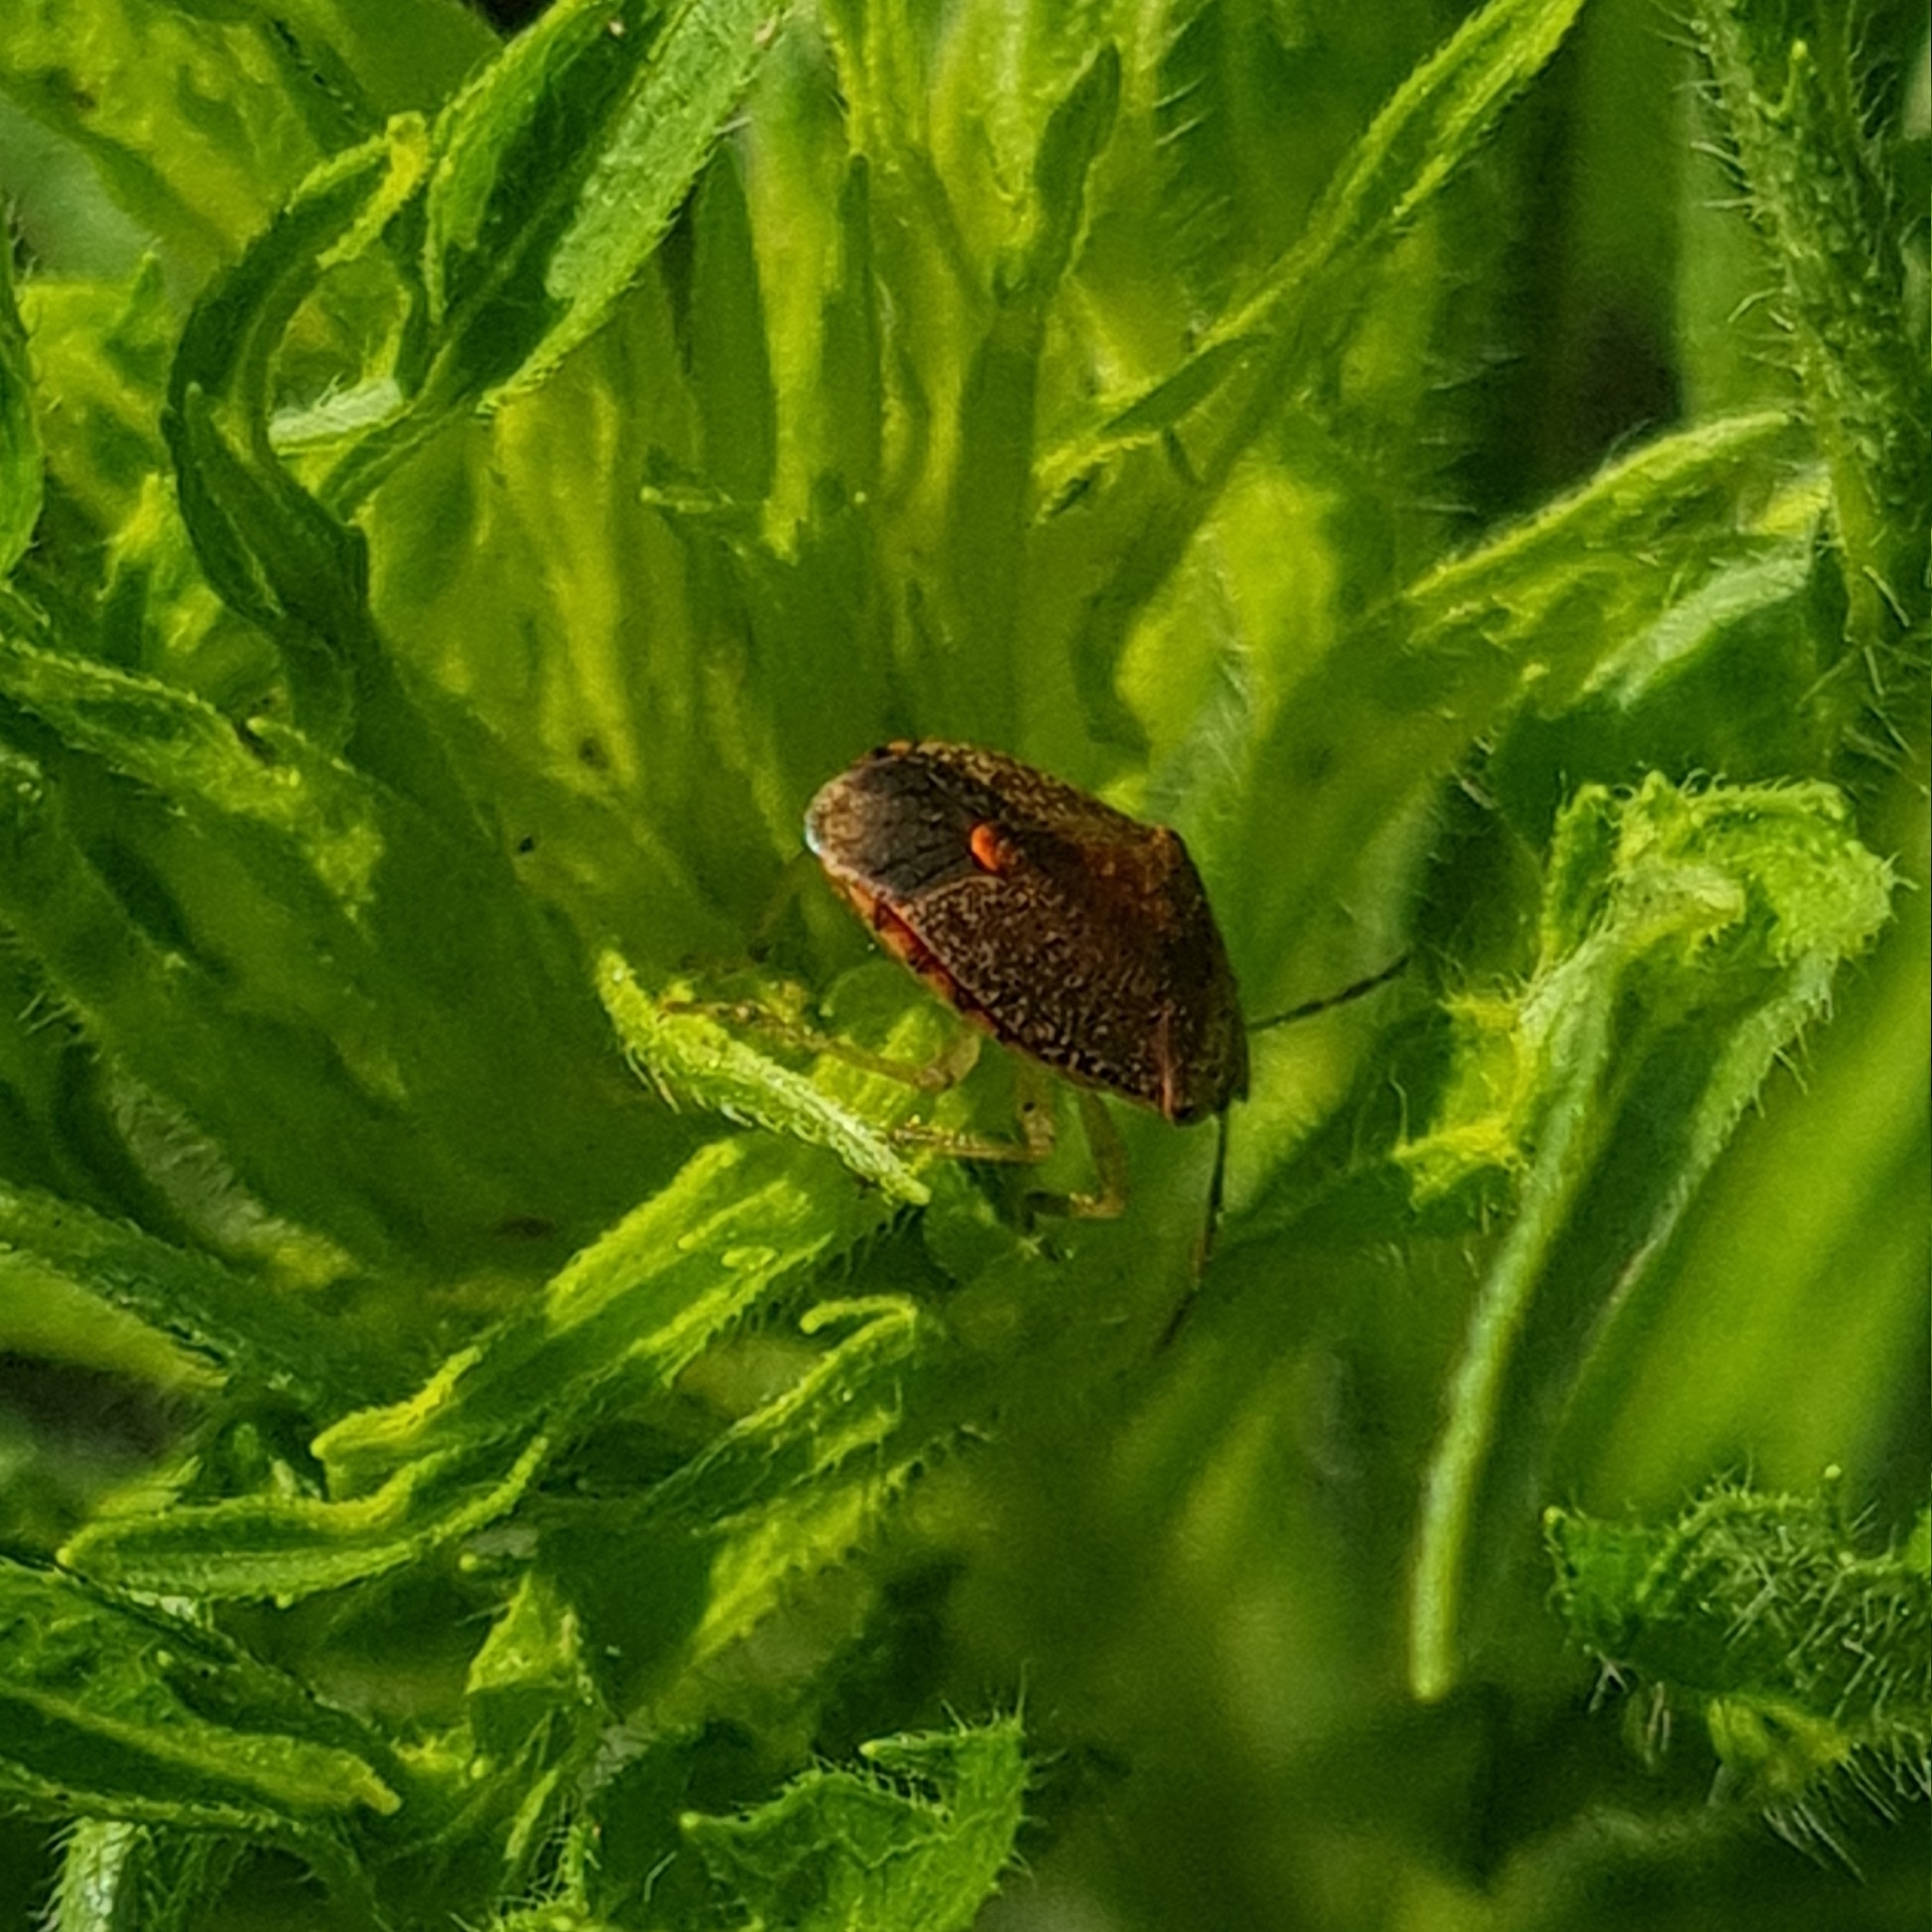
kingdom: Animalia
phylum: Arthropoda
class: Insecta
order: Hemiptera
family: Pentatomidae
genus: Dryadocoris
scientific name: Dryadocoris apicalis
